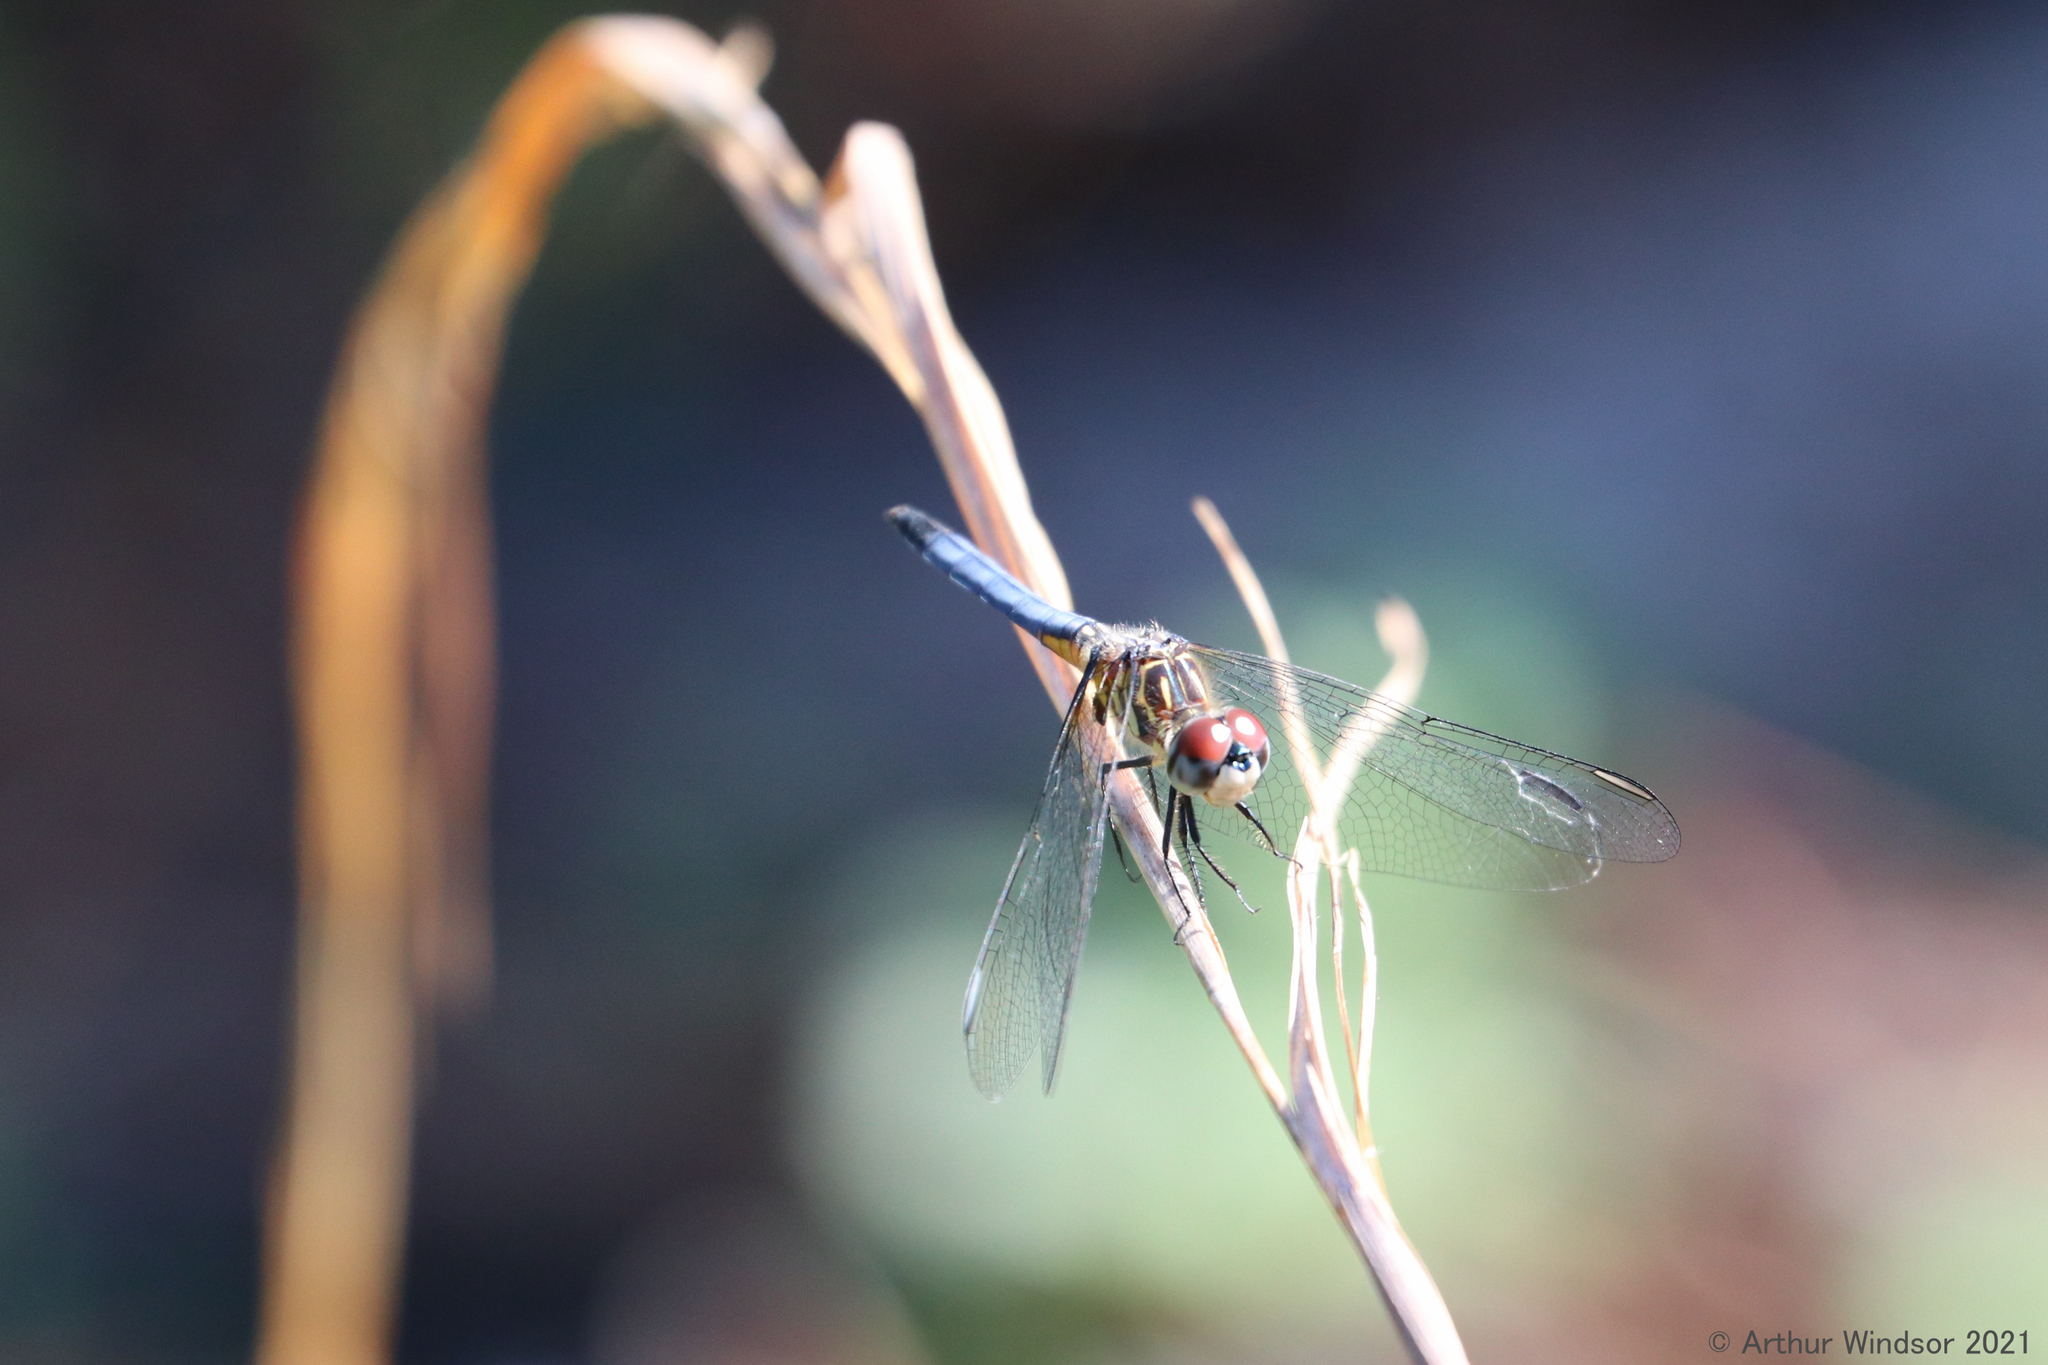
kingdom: Animalia
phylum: Arthropoda
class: Insecta
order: Odonata
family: Libellulidae
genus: Pachydiplax
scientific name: Pachydiplax longipennis
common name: Blue dasher
